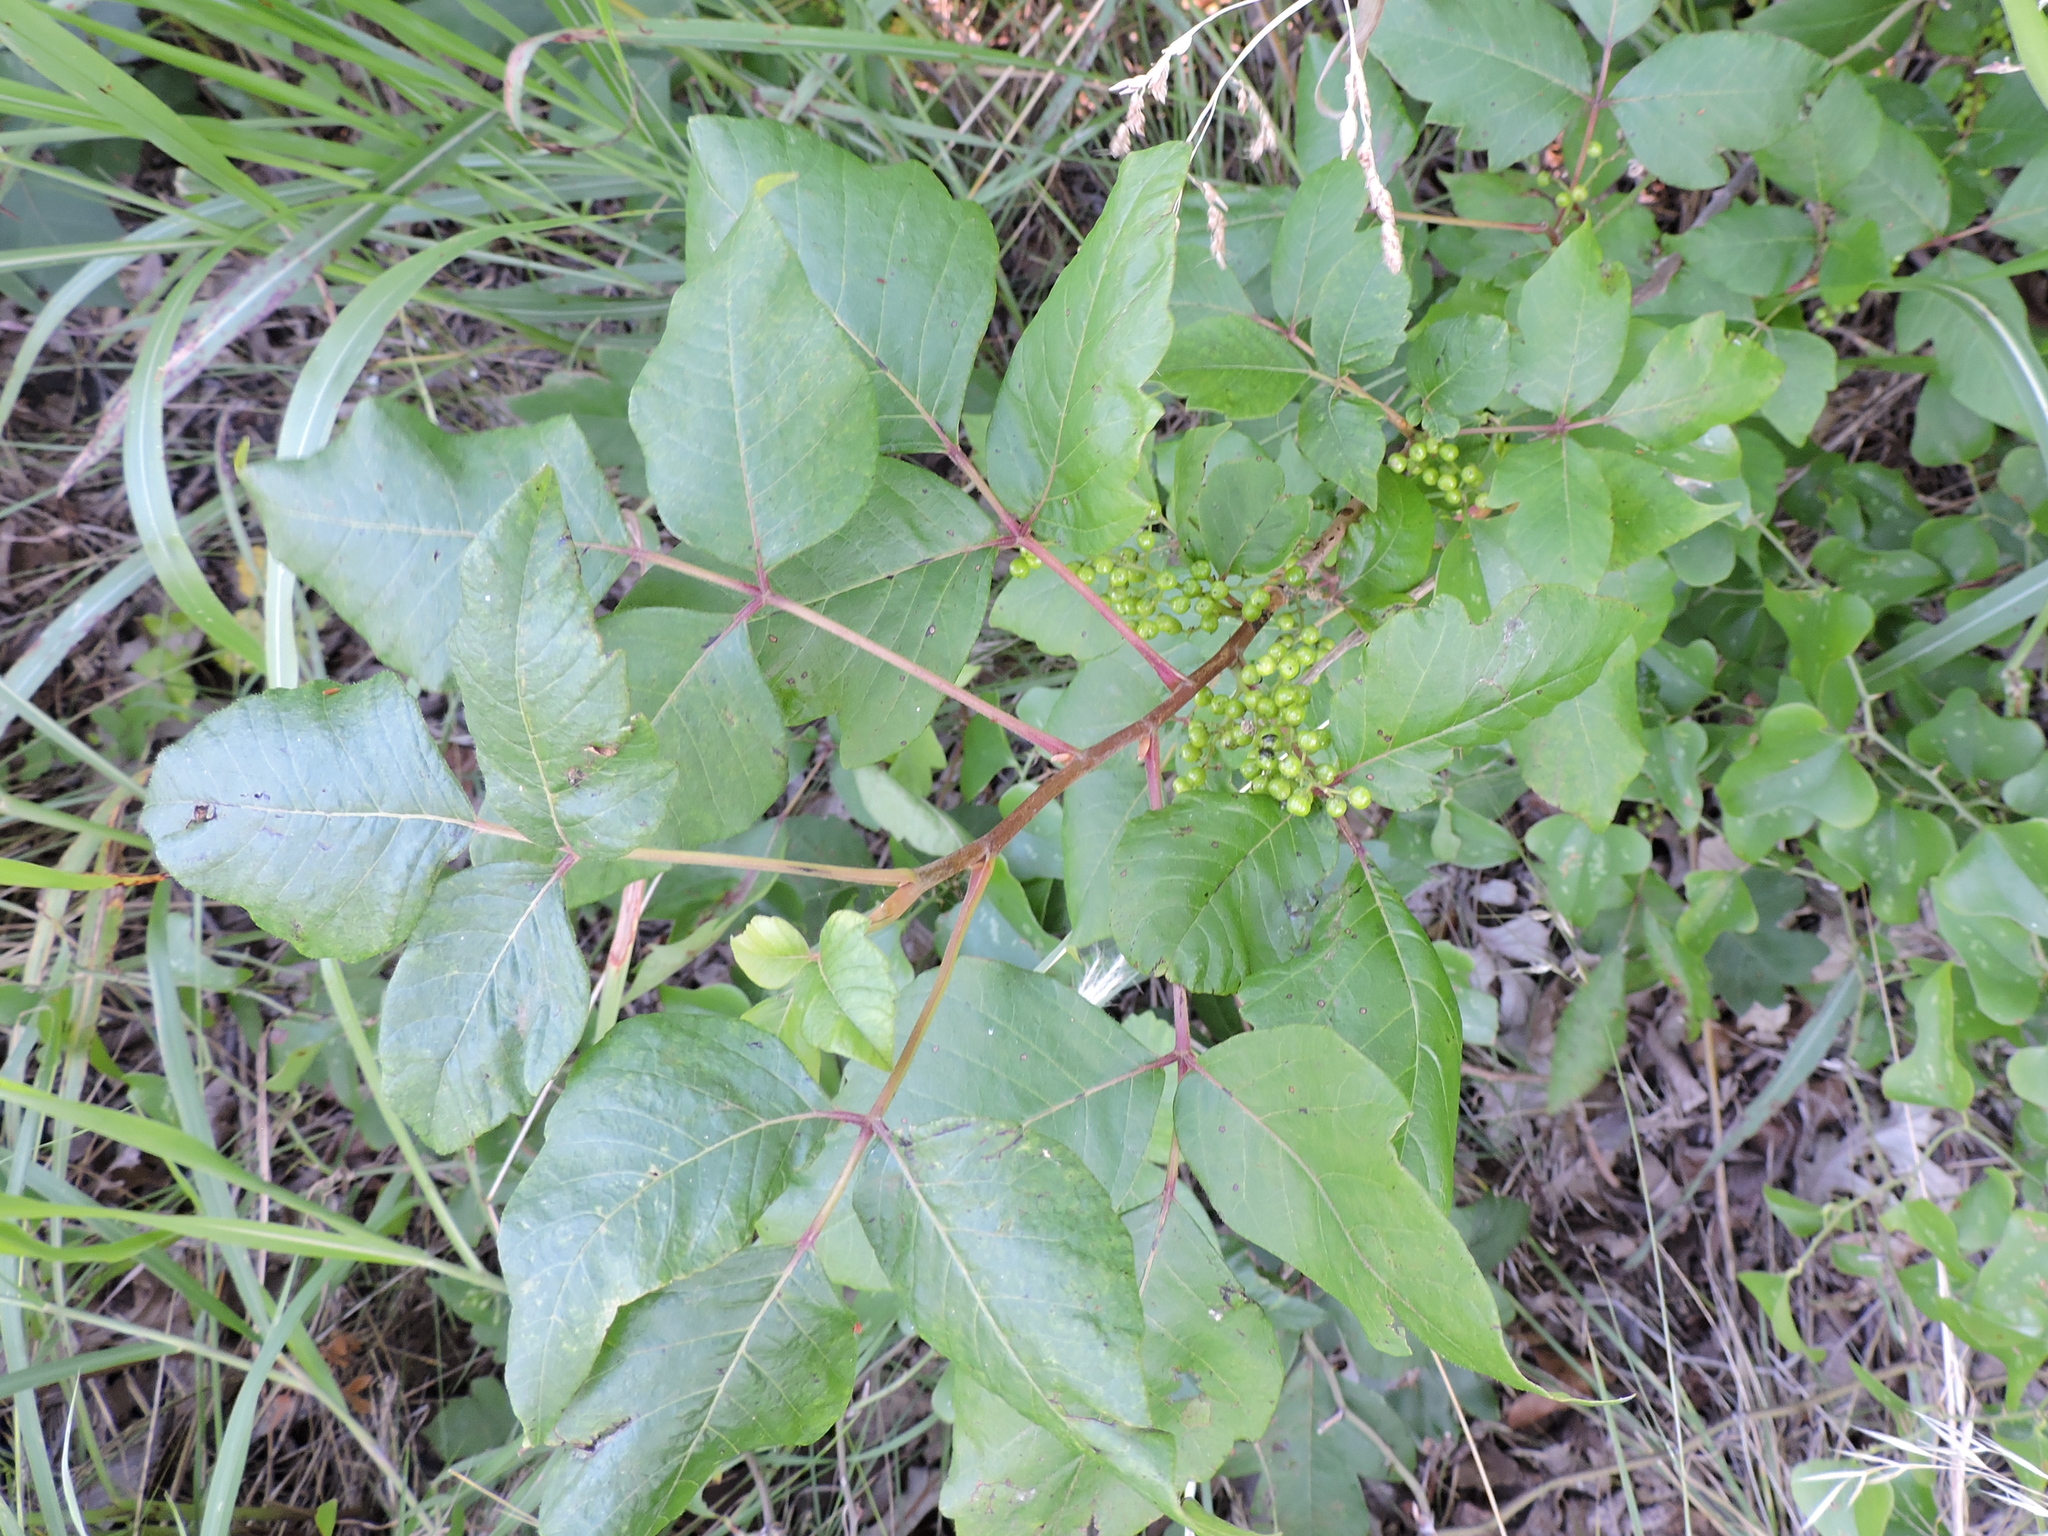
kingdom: Plantae
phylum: Tracheophyta
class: Magnoliopsida
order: Sapindales
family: Anacardiaceae
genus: Toxicodendron
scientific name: Toxicodendron radicans
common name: Poison ivy
